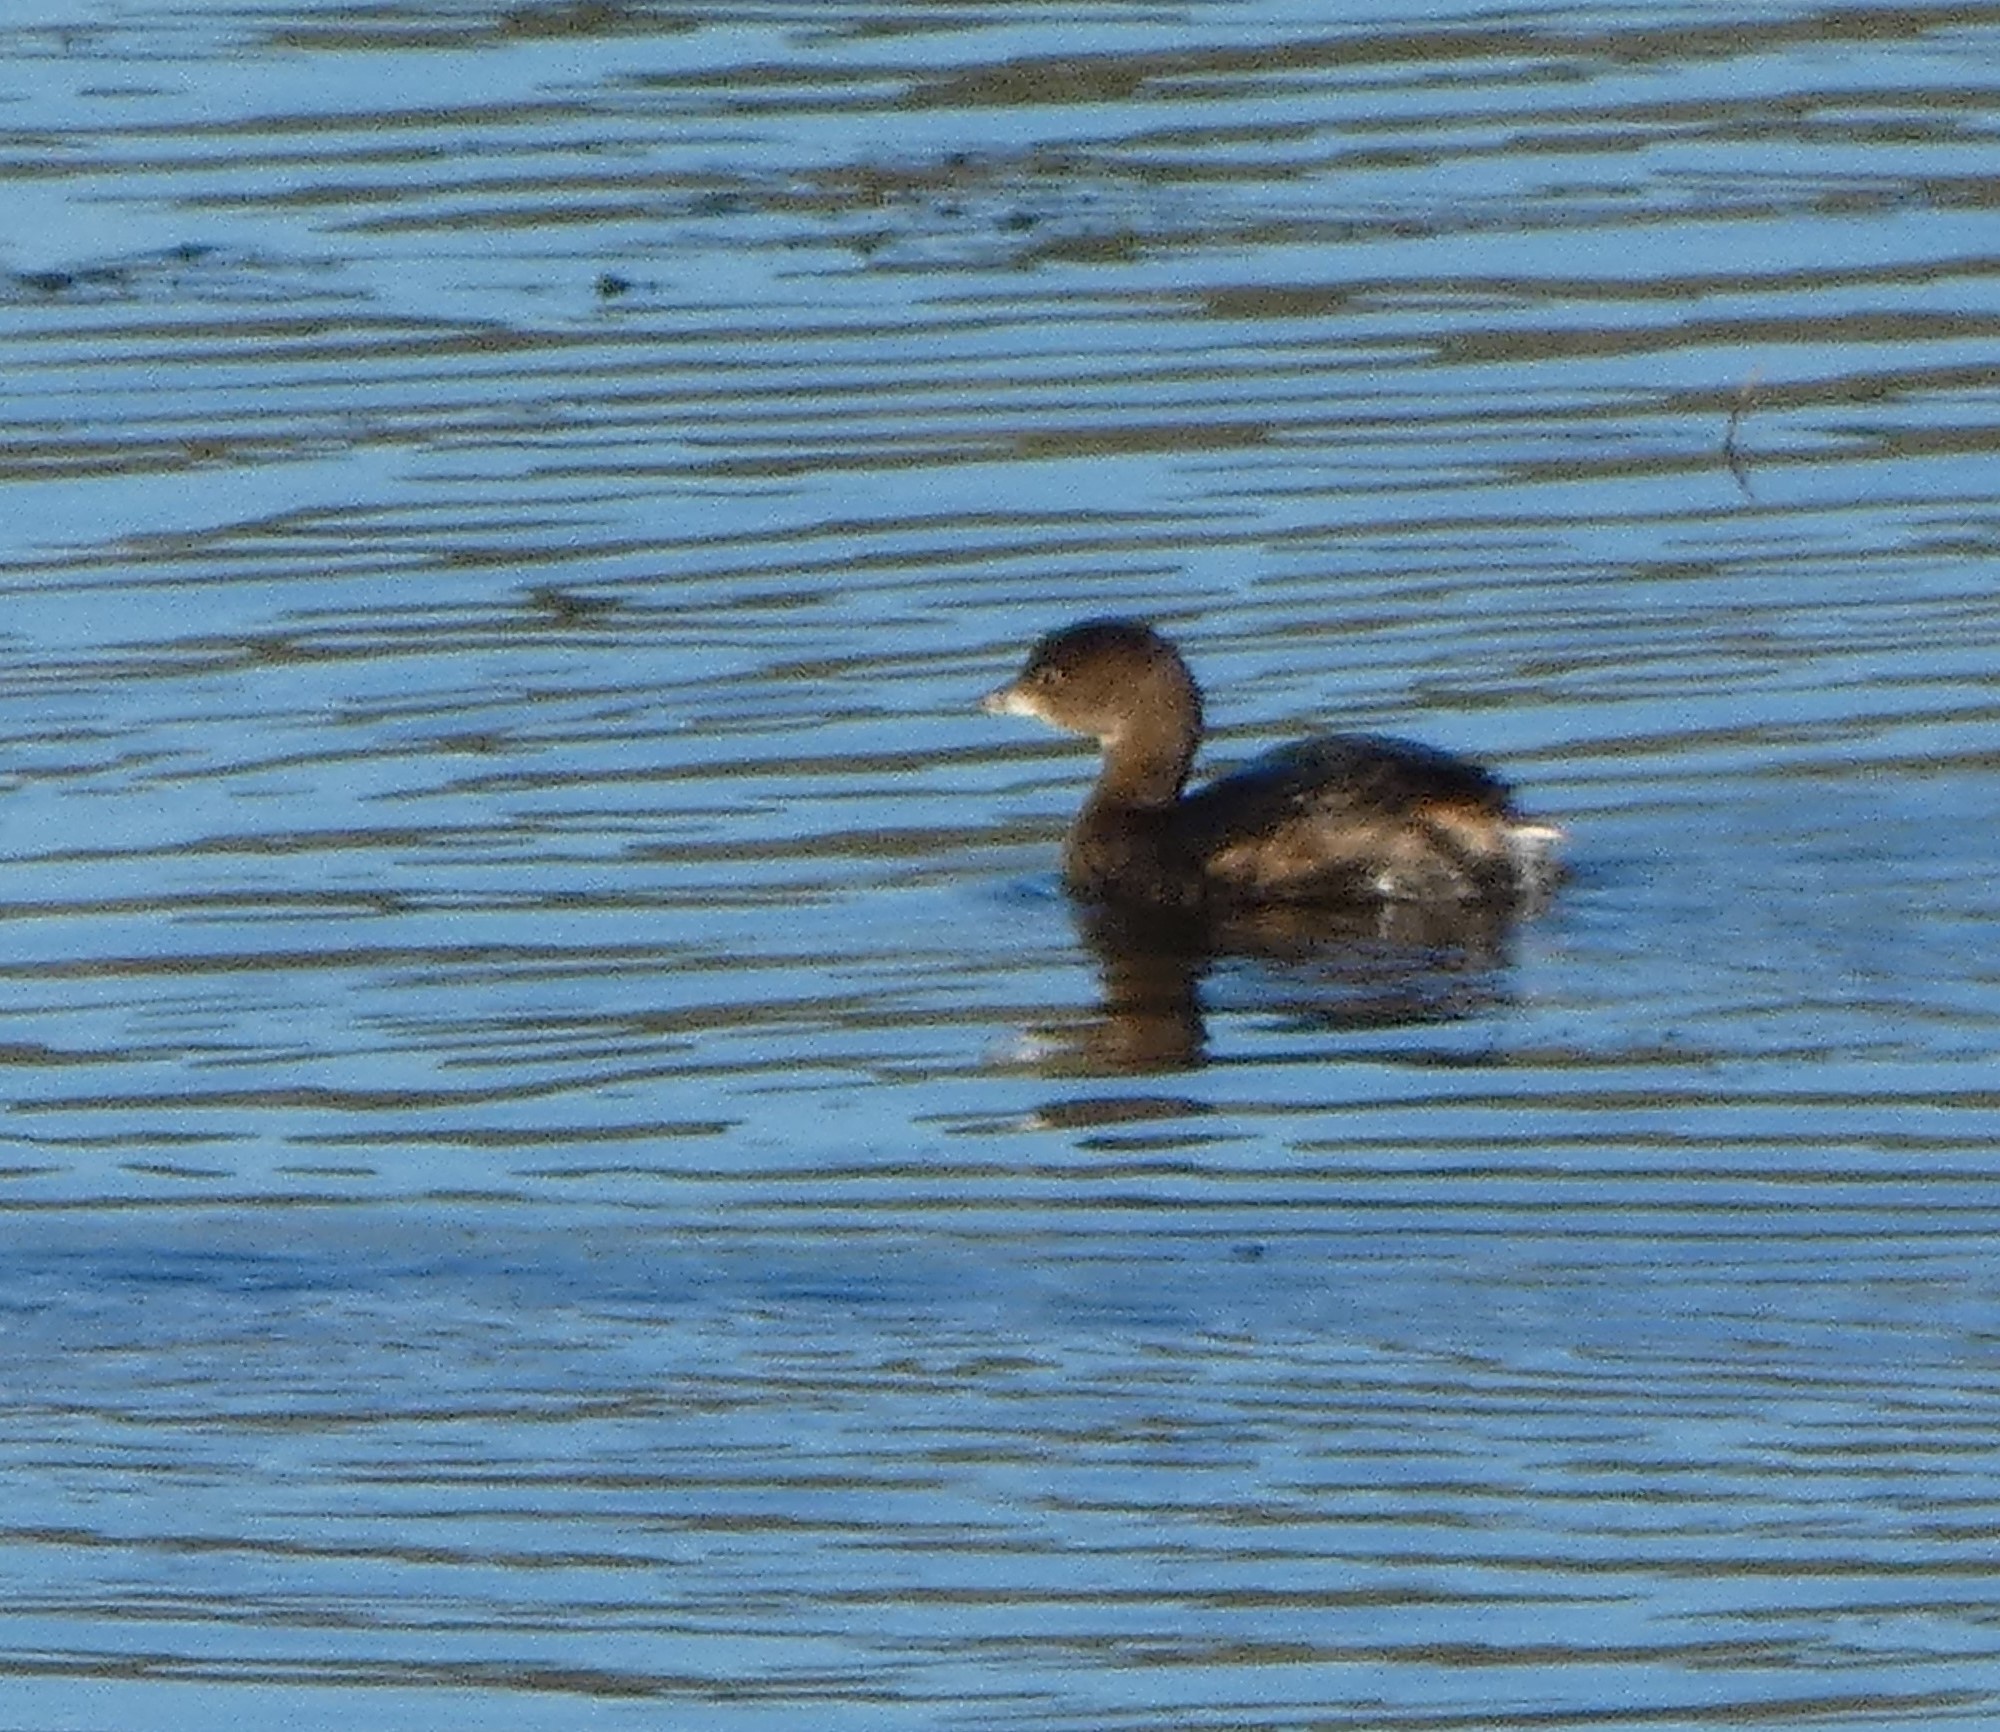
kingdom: Animalia
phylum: Chordata
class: Aves
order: Podicipediformes
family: Podicipedidae
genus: Podilymbus
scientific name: Podilymbus podiceps
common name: Pied-billed grebe
